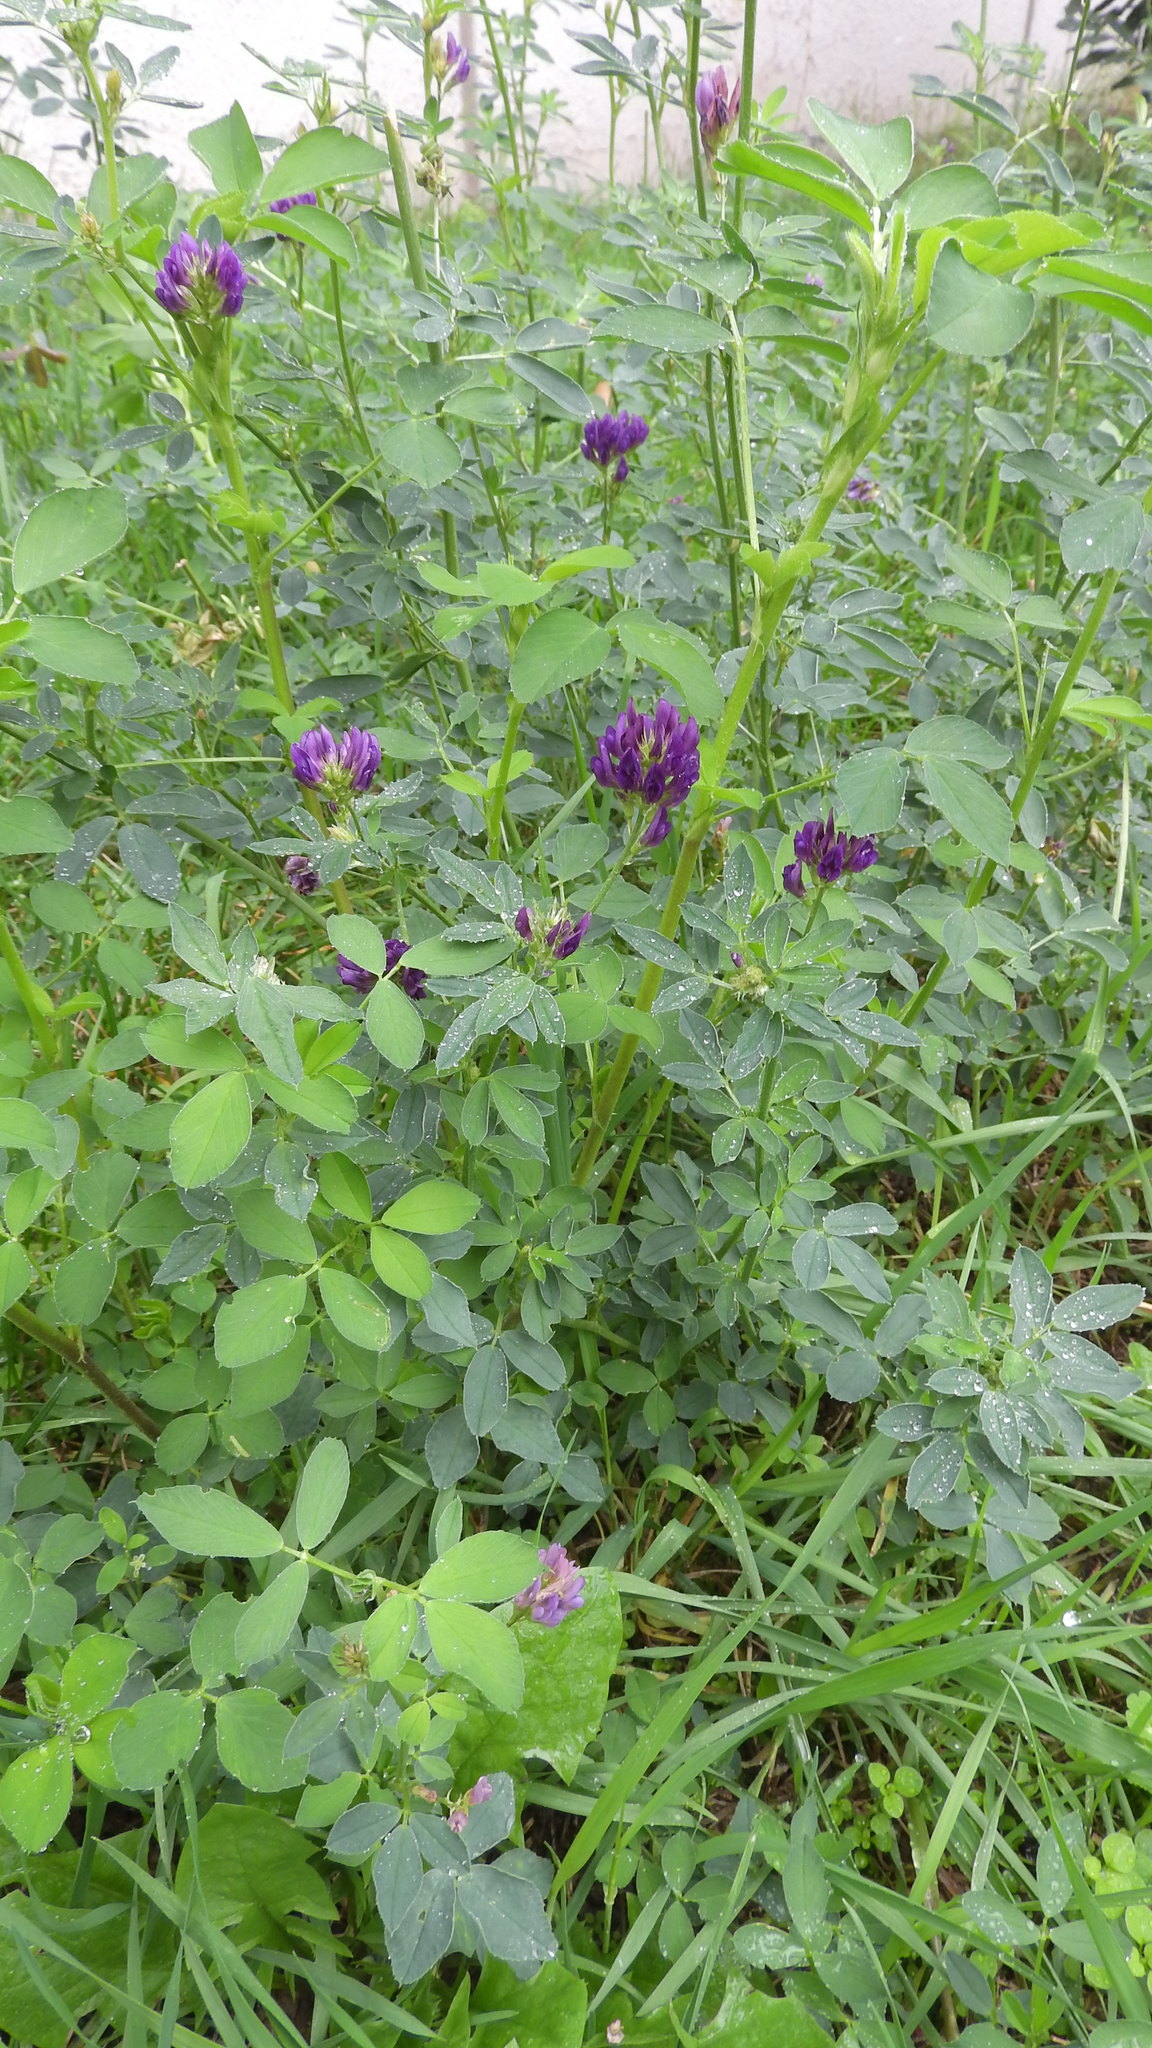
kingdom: Plantae
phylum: Tracheophyta
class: Magnoliopsida
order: Fabales
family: Fabaceae
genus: Medicago
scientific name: Medicago sativa
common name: Alfalfa
